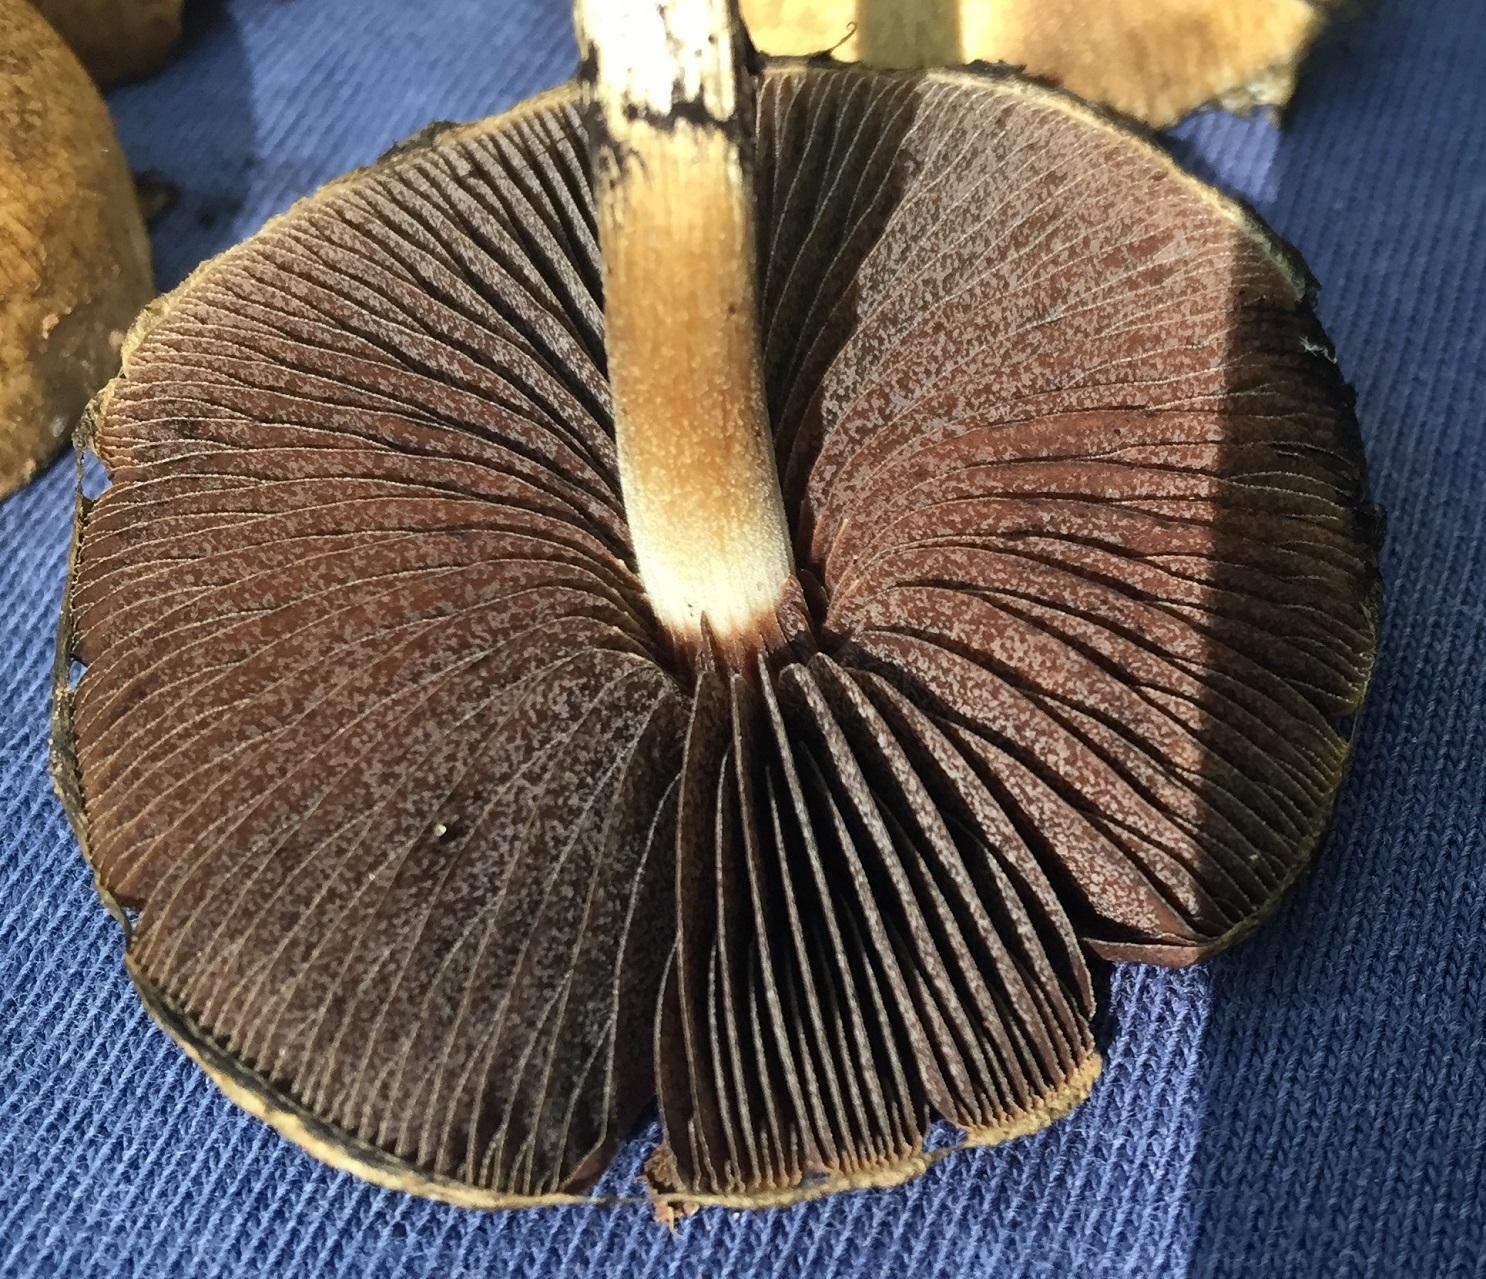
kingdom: Fungi
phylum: Basidiomycota
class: Agaricomycetes
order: Agaricales
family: Psathyrellaceae
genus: Lacrymaria
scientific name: Lacrymaria lacrymabunda
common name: Weeping widow
